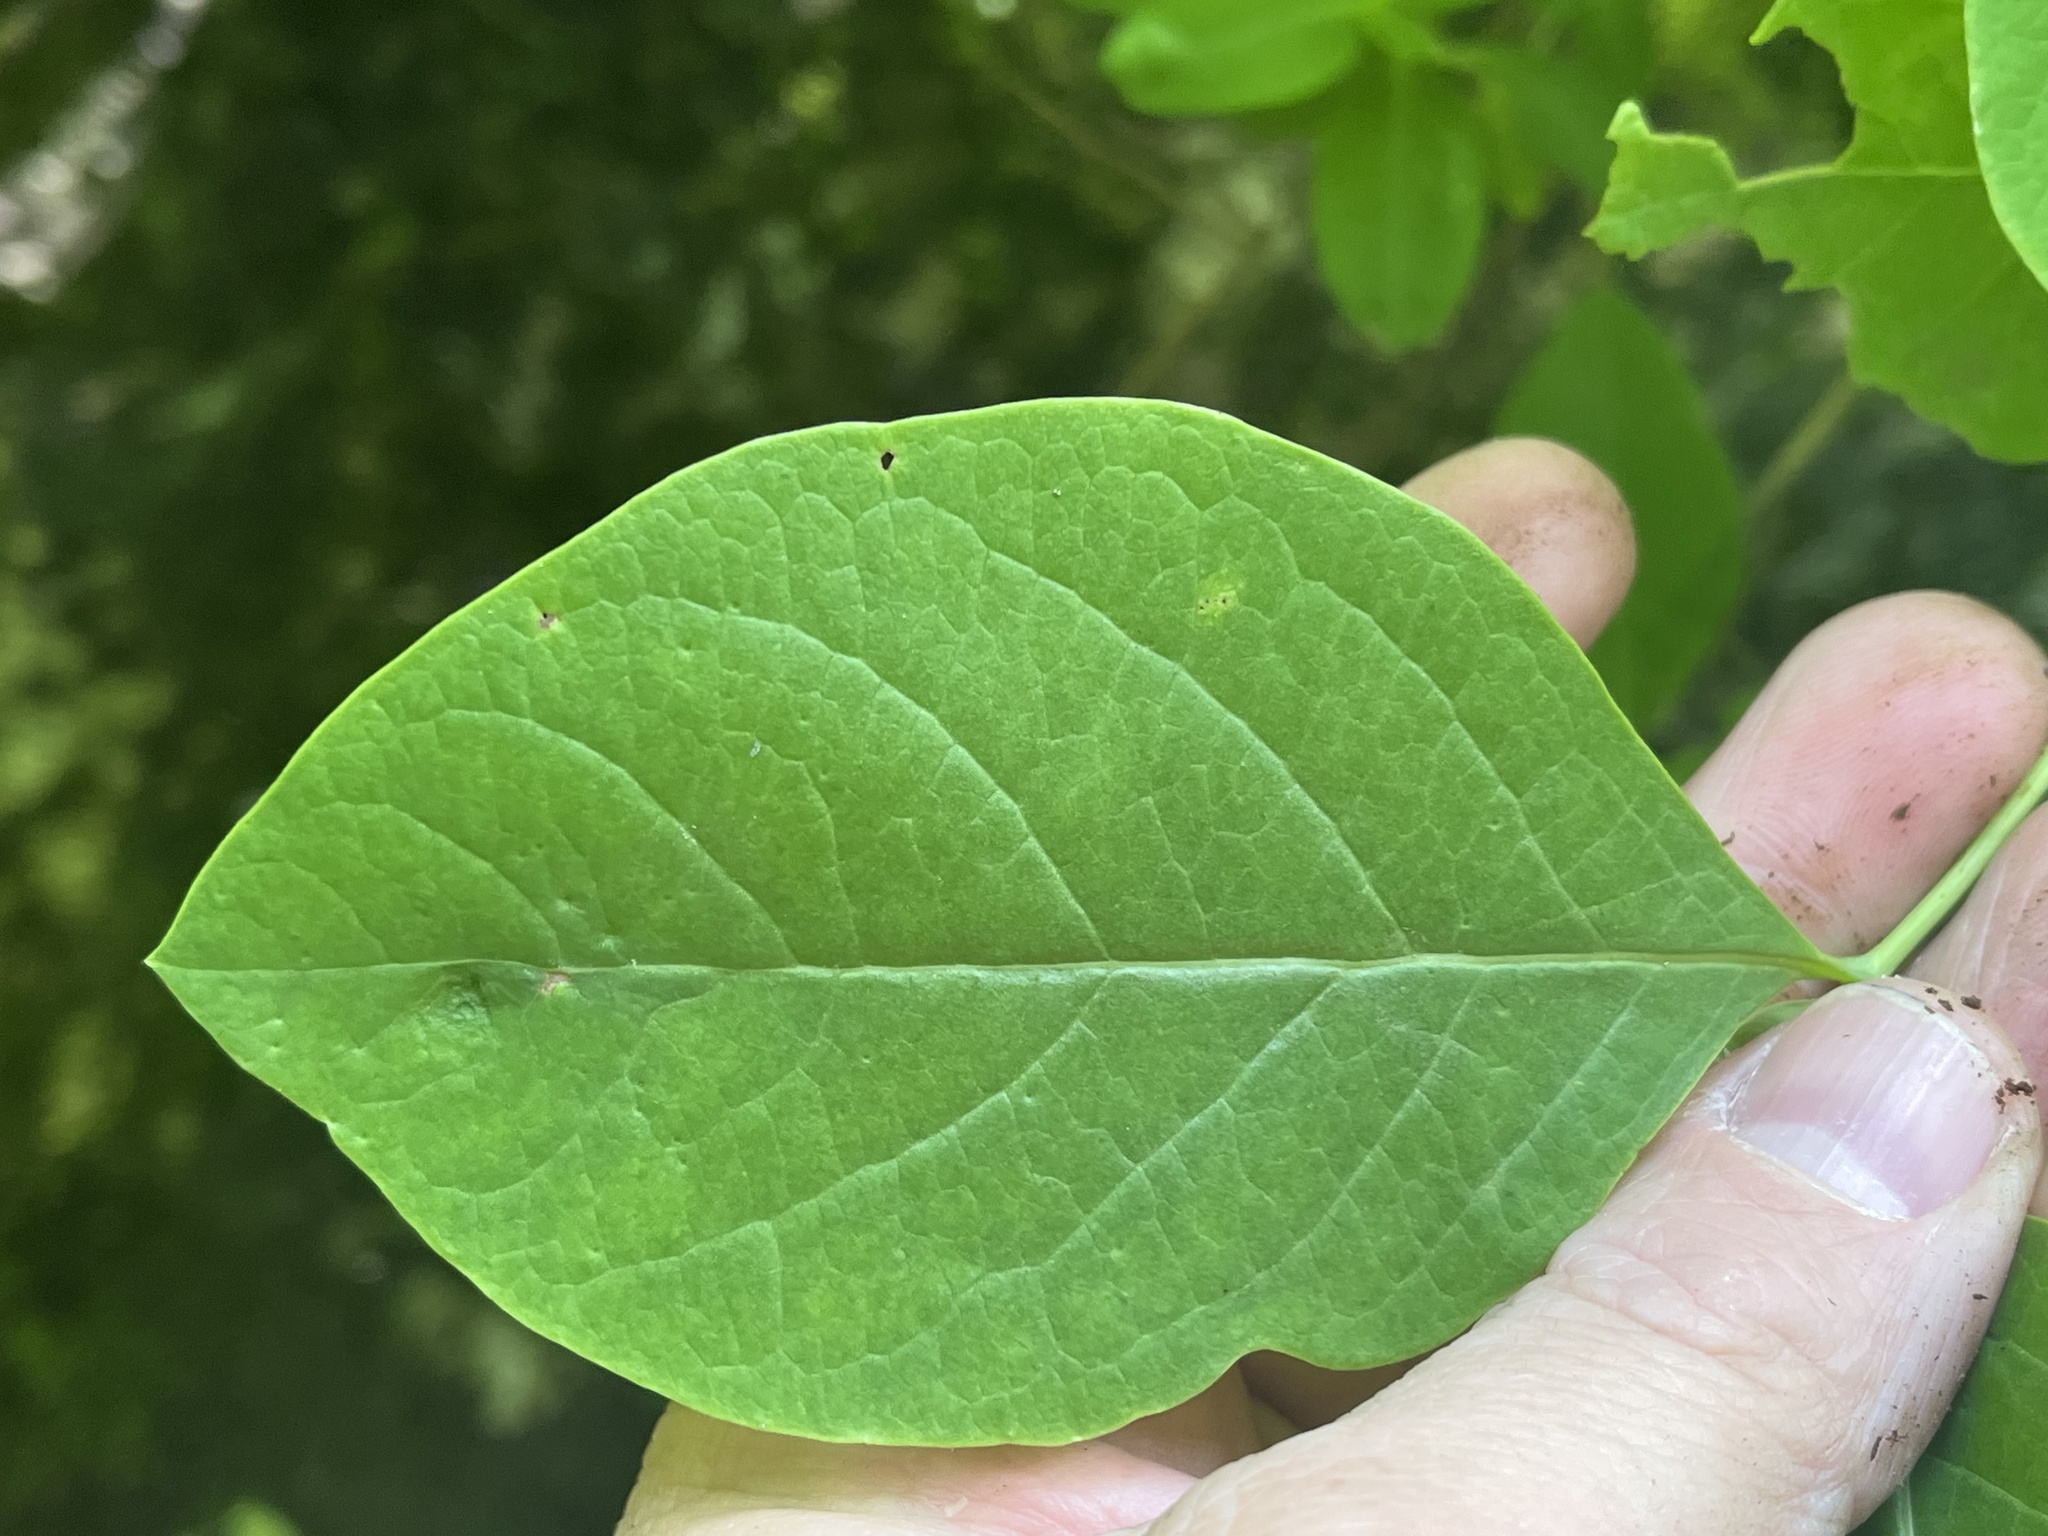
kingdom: Plantae
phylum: Tracheophyta
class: Magnoliopsida
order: Dipsacales
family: Caprifoliaceae
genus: Lonicera
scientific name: Lonicera dioica
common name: Limber honeysuckle
